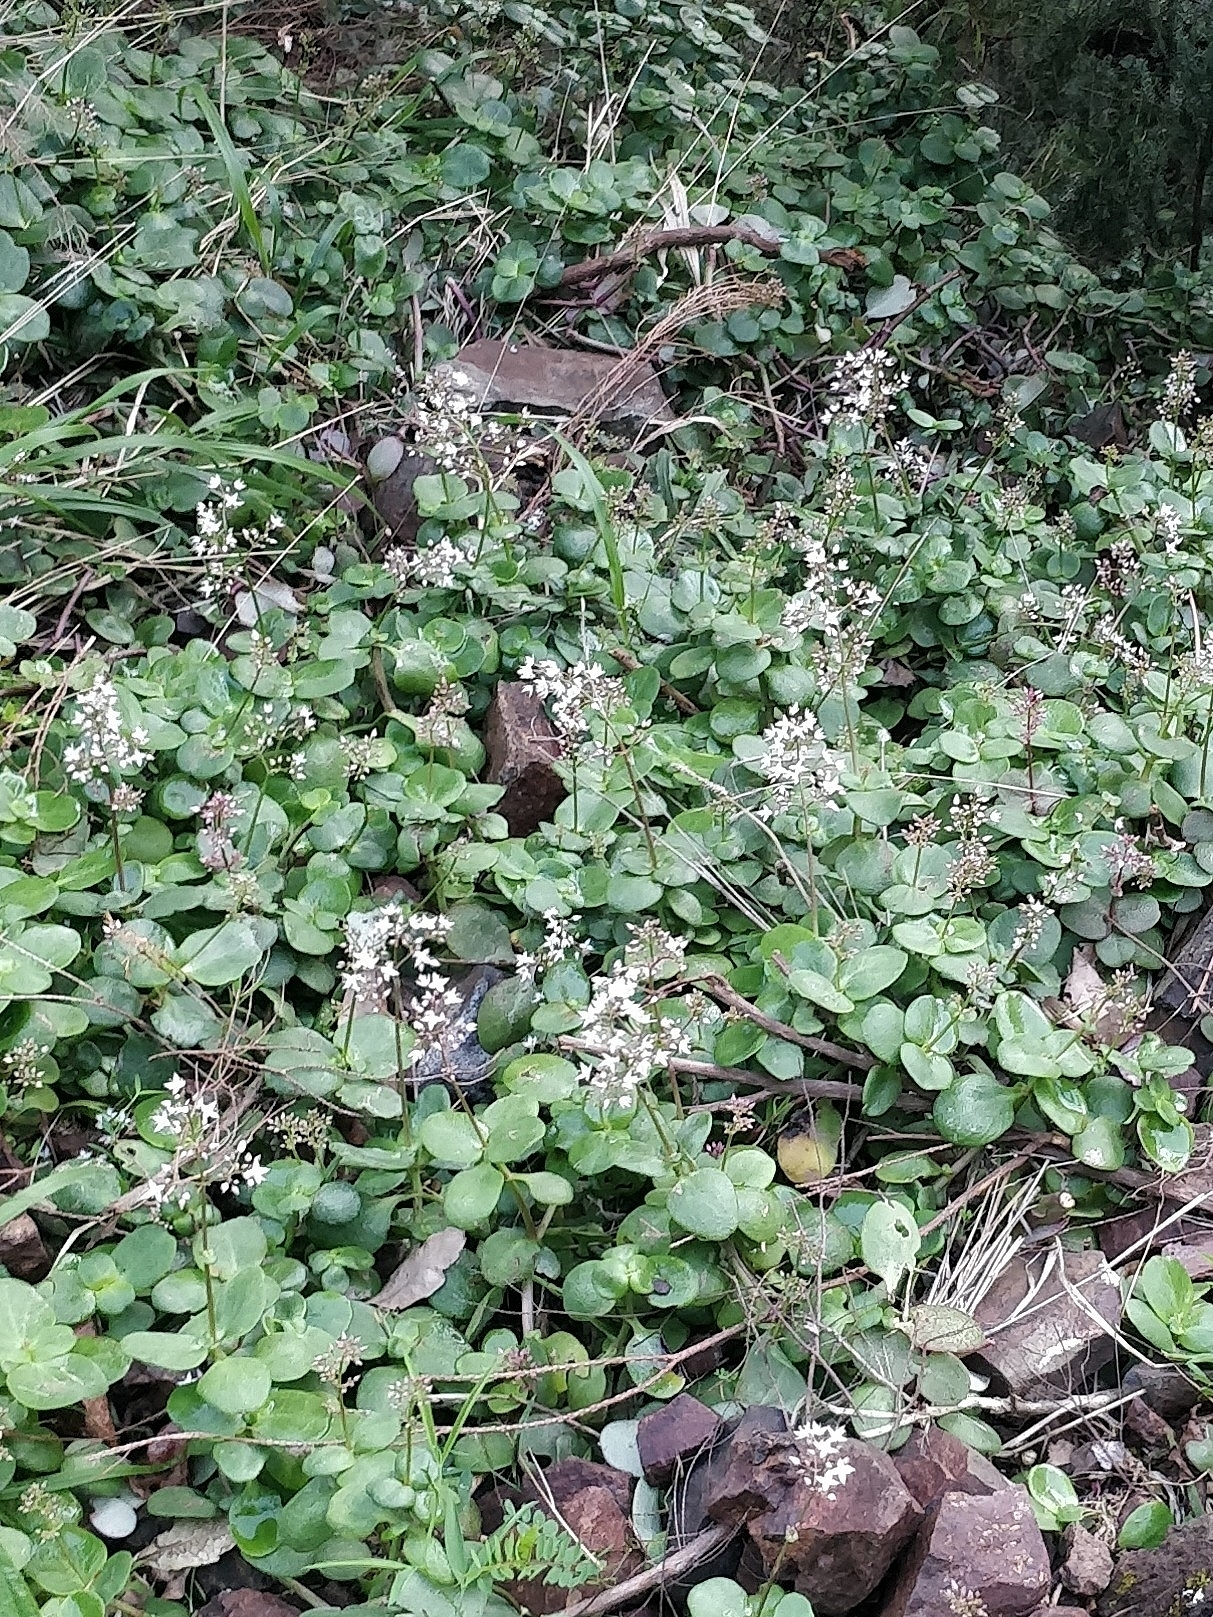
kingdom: Plantae
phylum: Tracheophyta
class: Magnoliopsida
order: Saxifragales
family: Crassulaceae
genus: Crassula
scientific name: Crassula multicava
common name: Cape province pygmyweed
